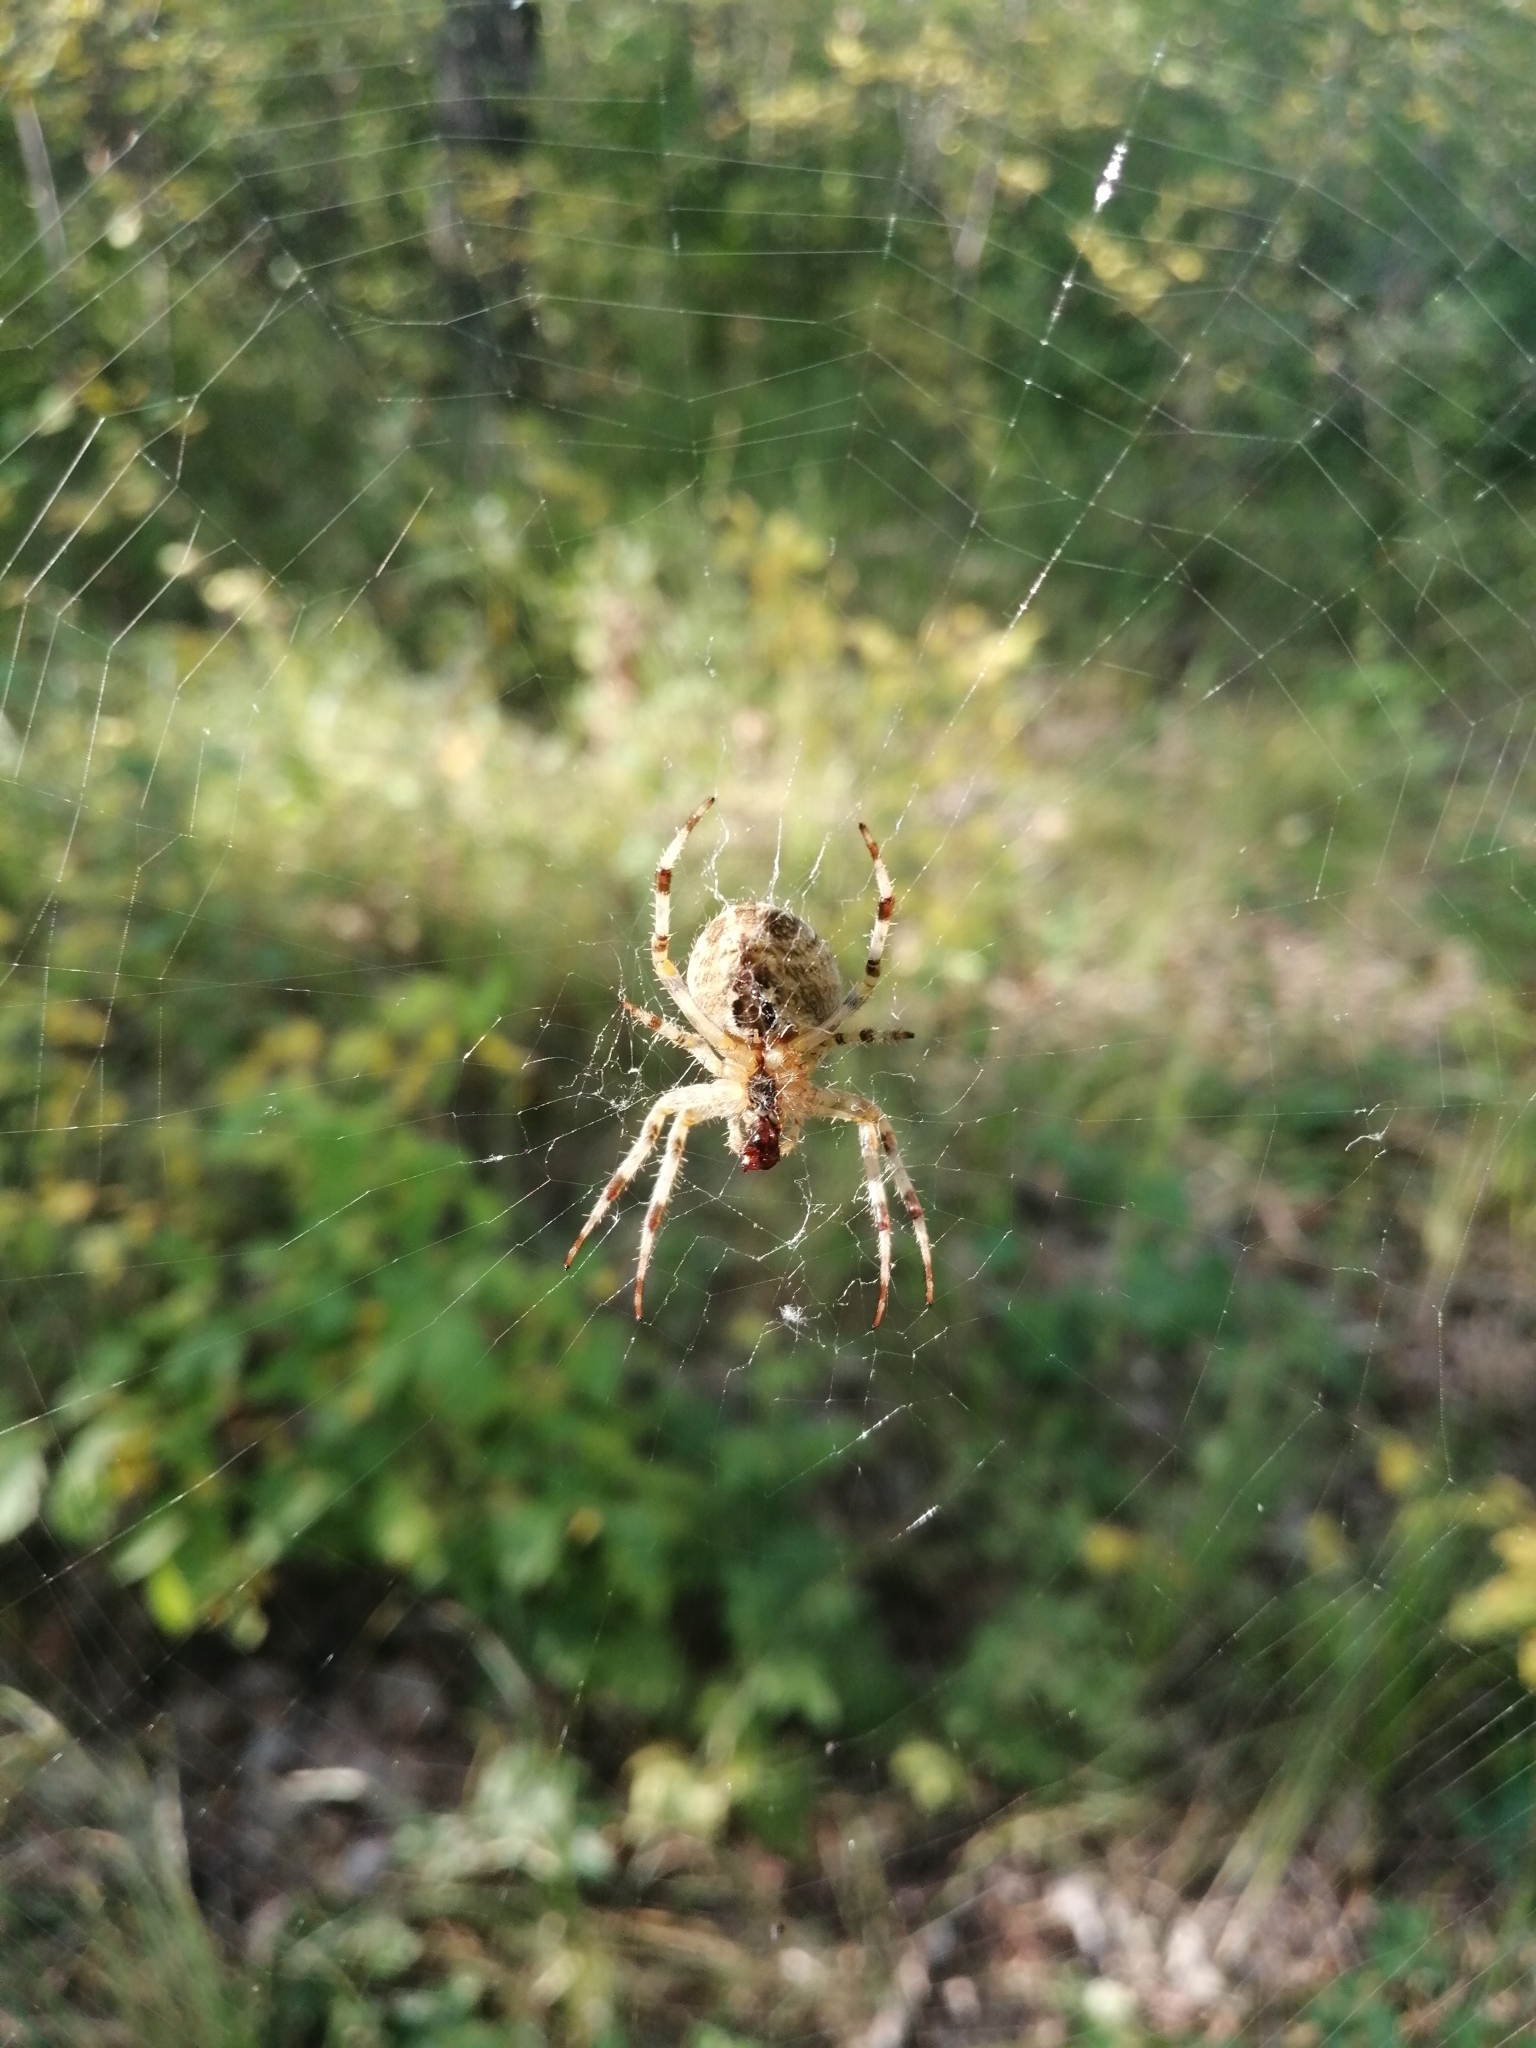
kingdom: Animalia
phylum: Arthropoda
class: Arachnida
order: Araneae
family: Araneidae
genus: Araneus
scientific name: Araneus diadematus
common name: Cross orbweaver
